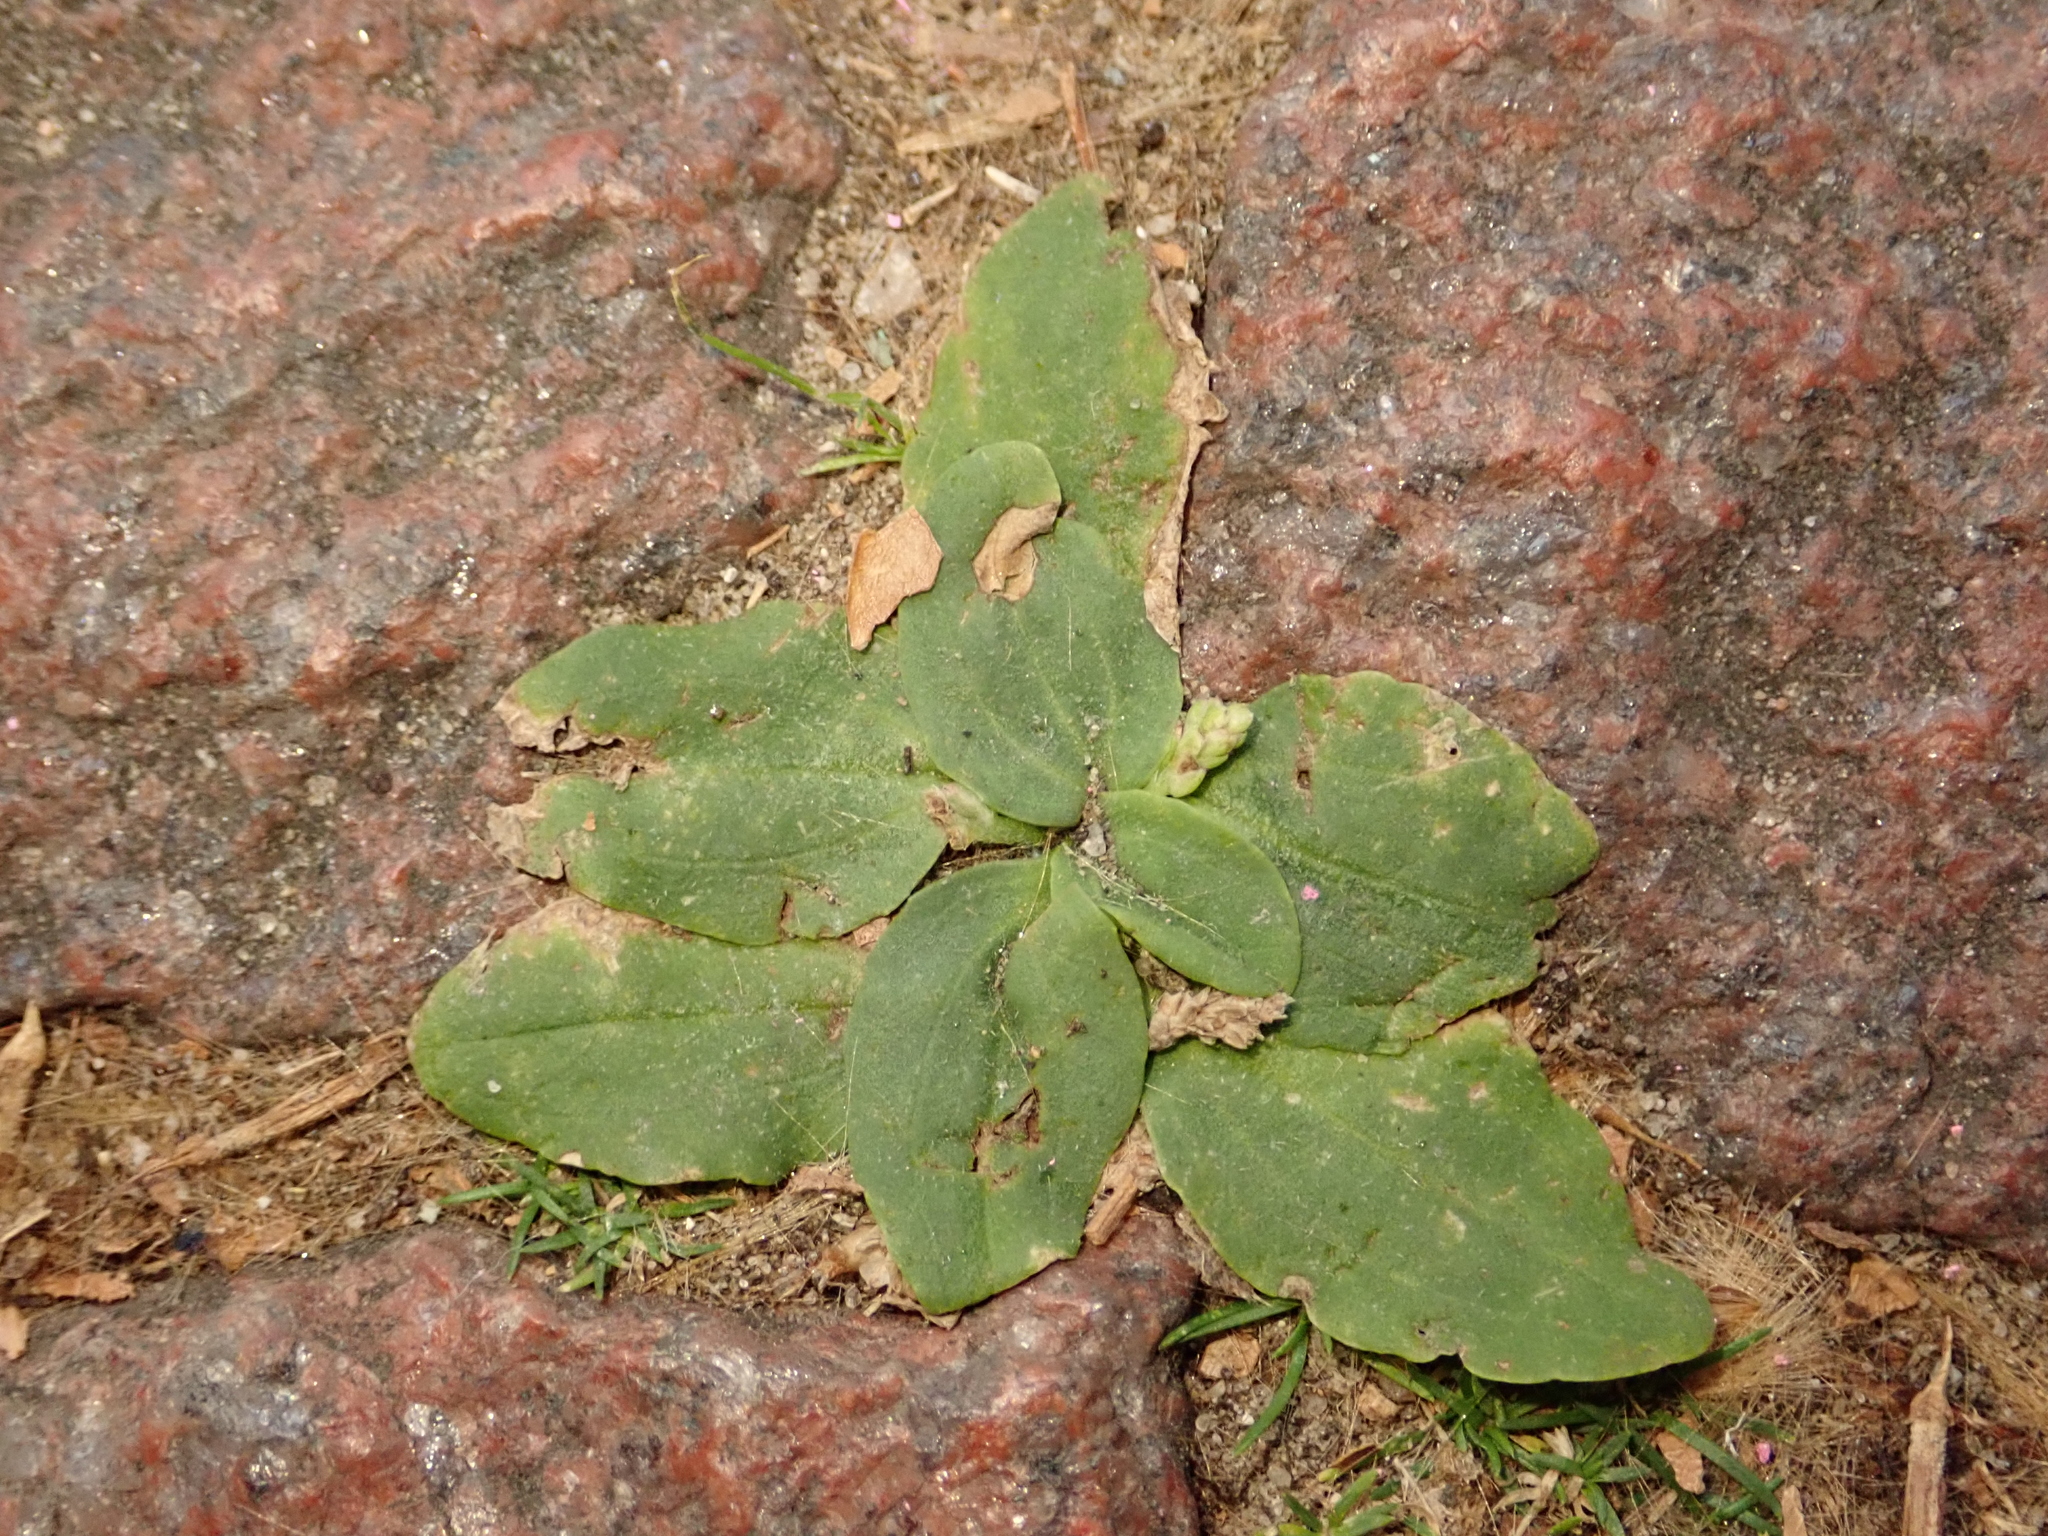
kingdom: Plantae
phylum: Tracheophyta
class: Magnoliopsida
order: Lamiales
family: Plantaginaceae
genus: Plantago
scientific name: Plantago major
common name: Common plantain
